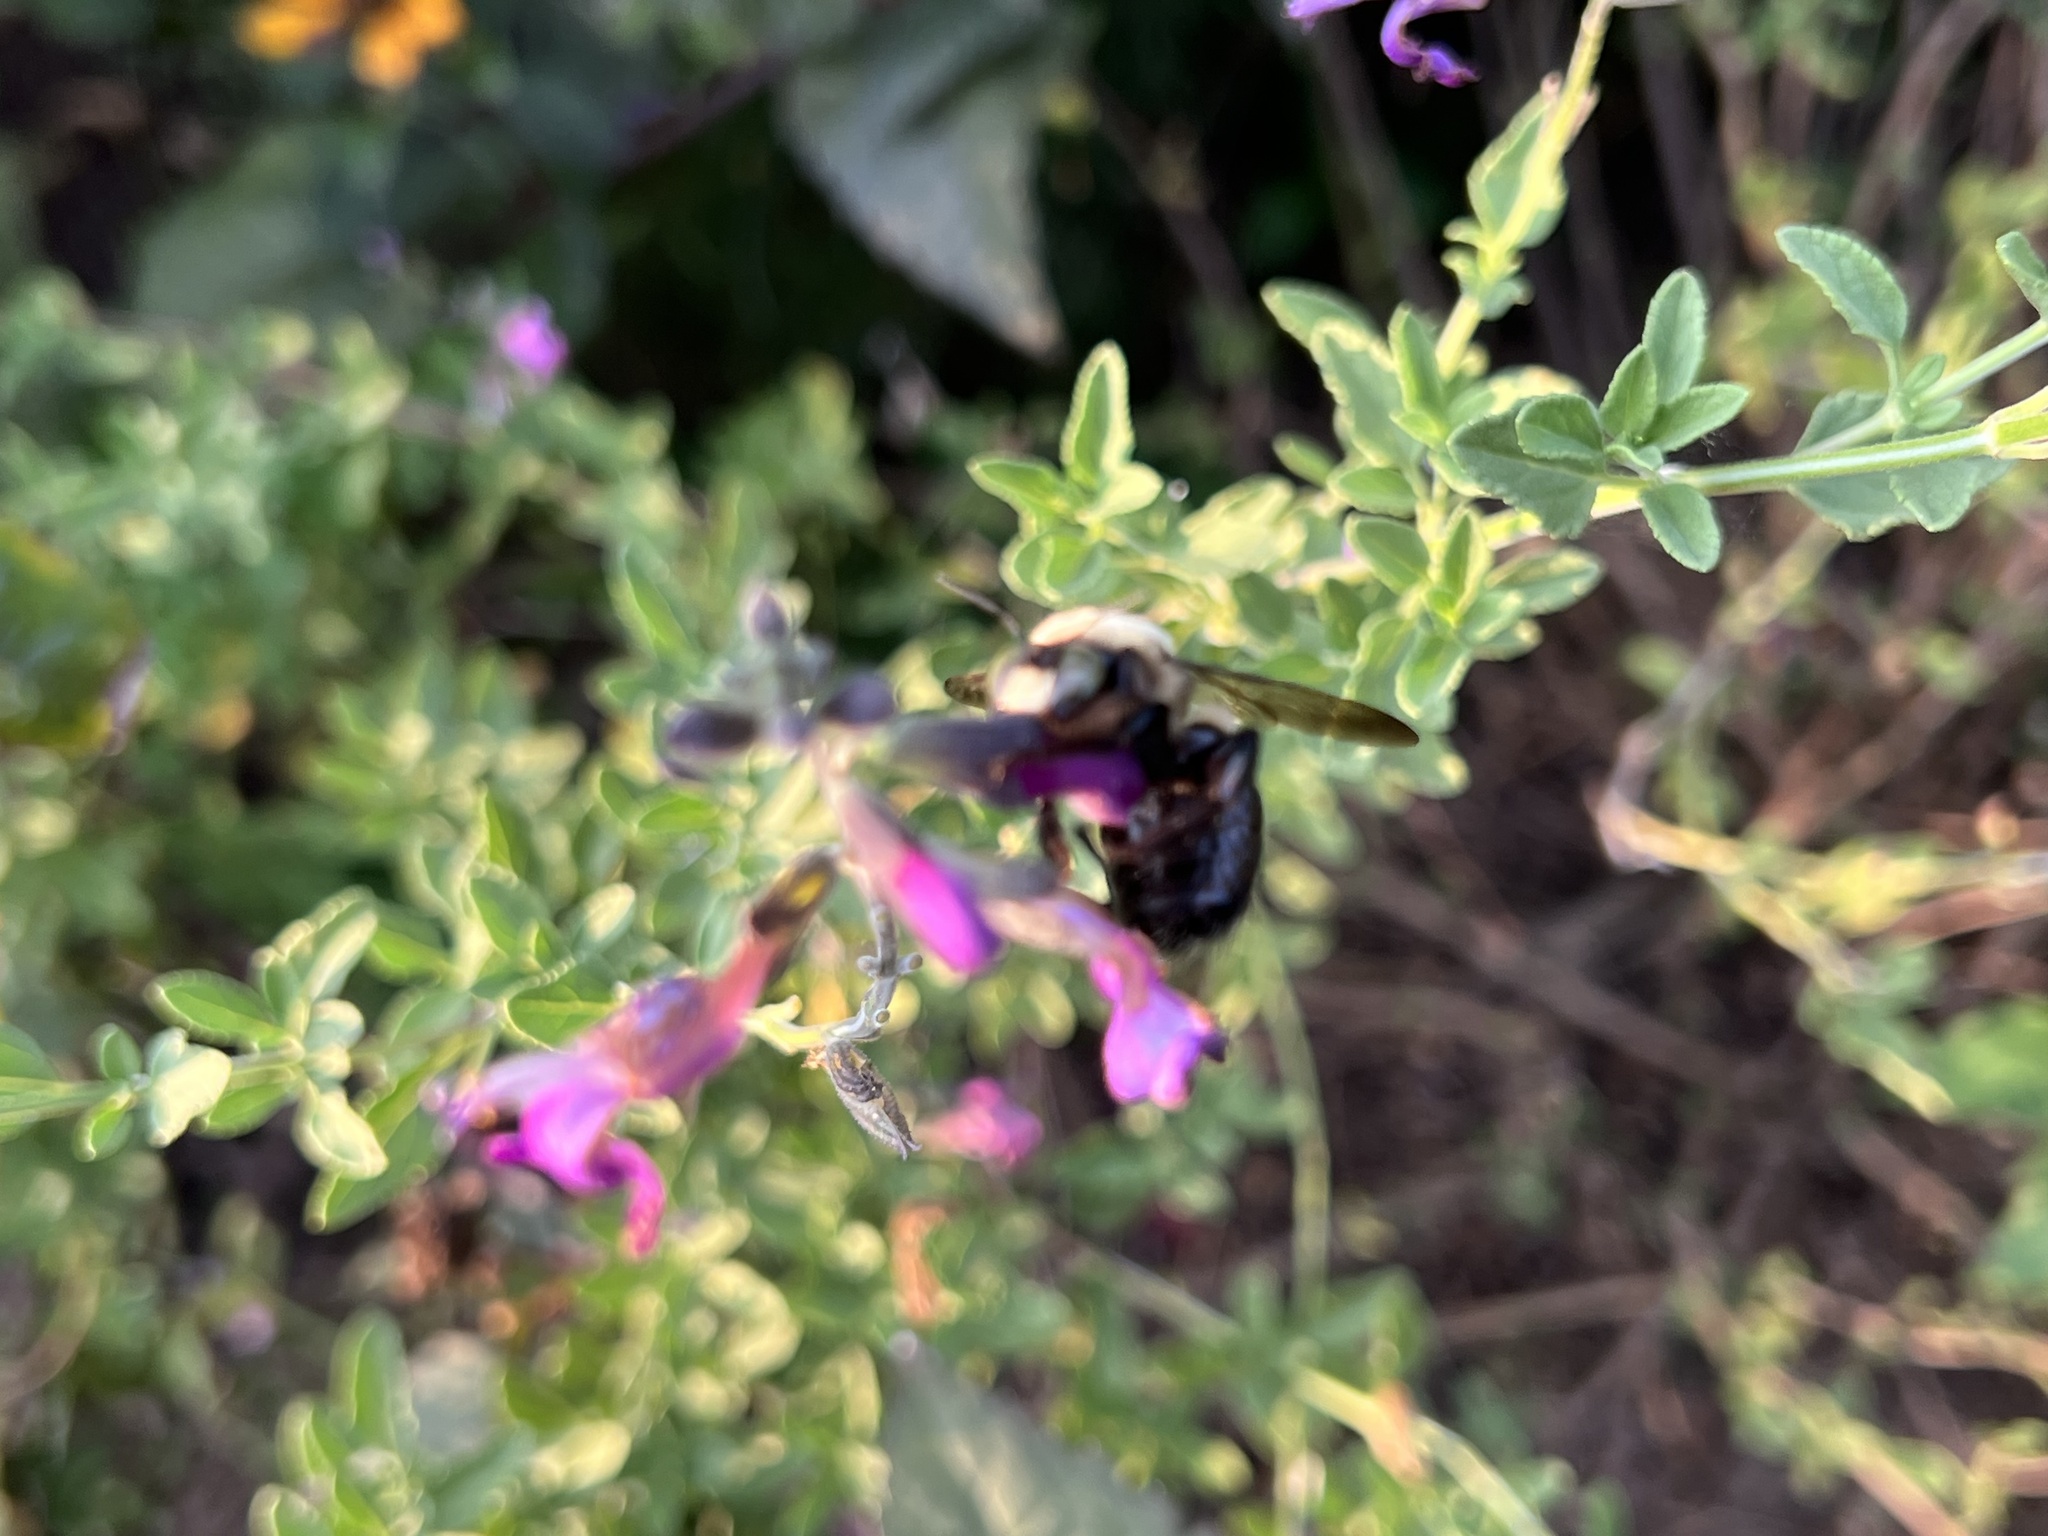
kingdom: Animalia
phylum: Arthropoda
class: Insecta
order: Hymenoptera
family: Apidae
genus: Xylocopa
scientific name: Xylocopa virginica
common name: Carpenter bee
